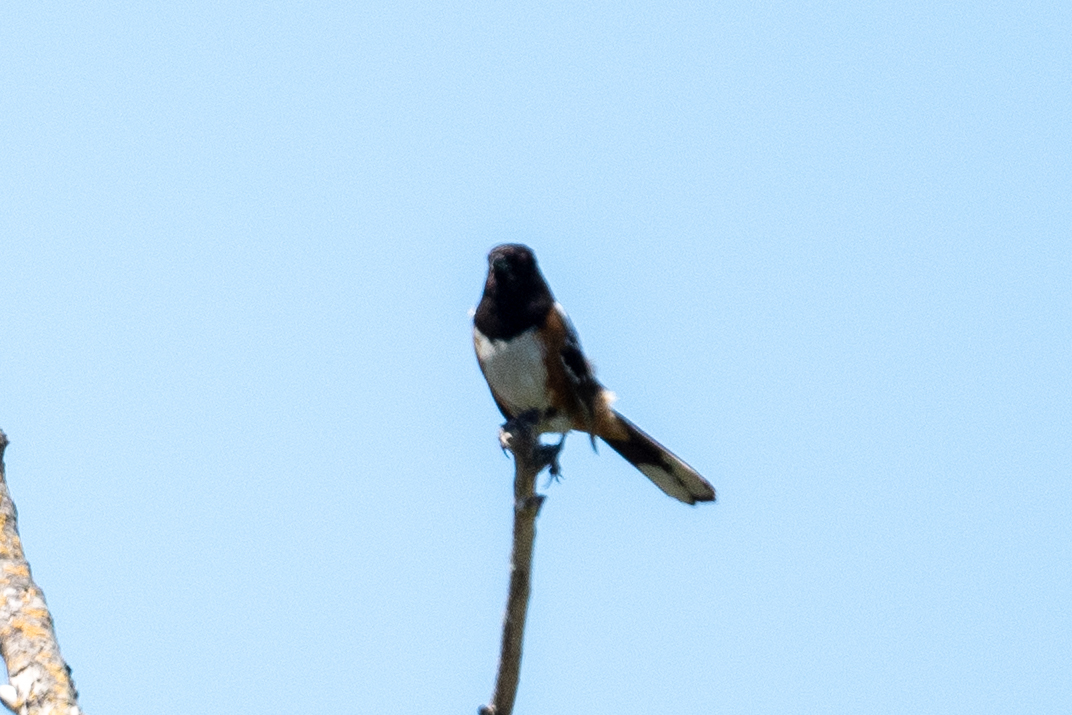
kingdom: Animalia
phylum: Chordata
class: Aves
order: Passeriformes
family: Passerellidae
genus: Pipilo
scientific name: Pipilo maculatus
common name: Spotted towhee
